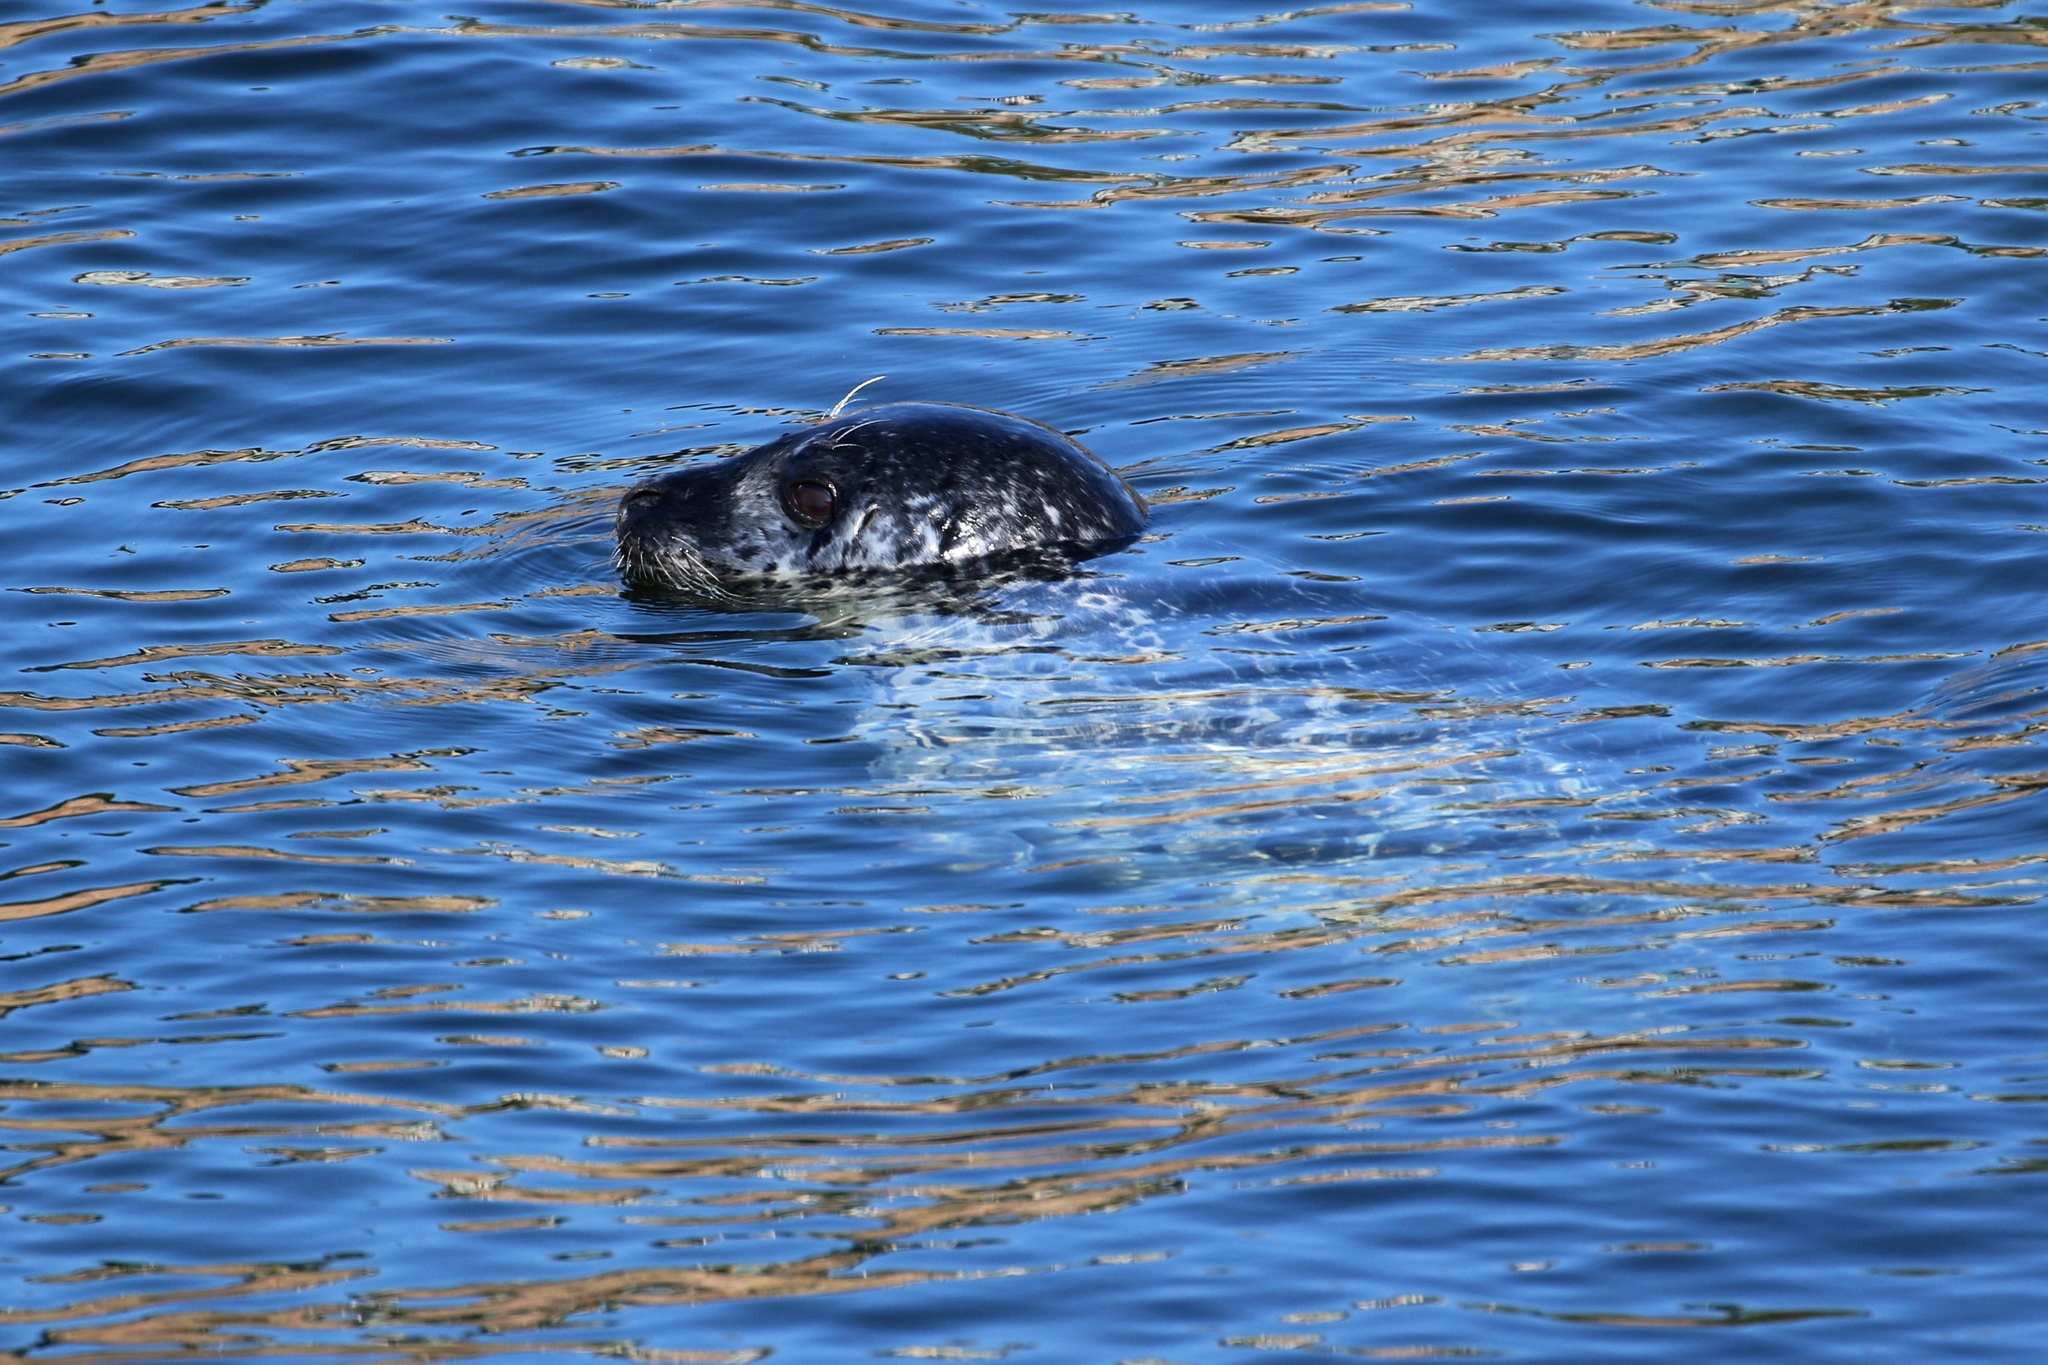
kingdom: Animalia
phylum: Chordata
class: Mammalia
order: Carnivora
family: Phocidae
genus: Phoca
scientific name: Phoca vitulina
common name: Harbor seal
